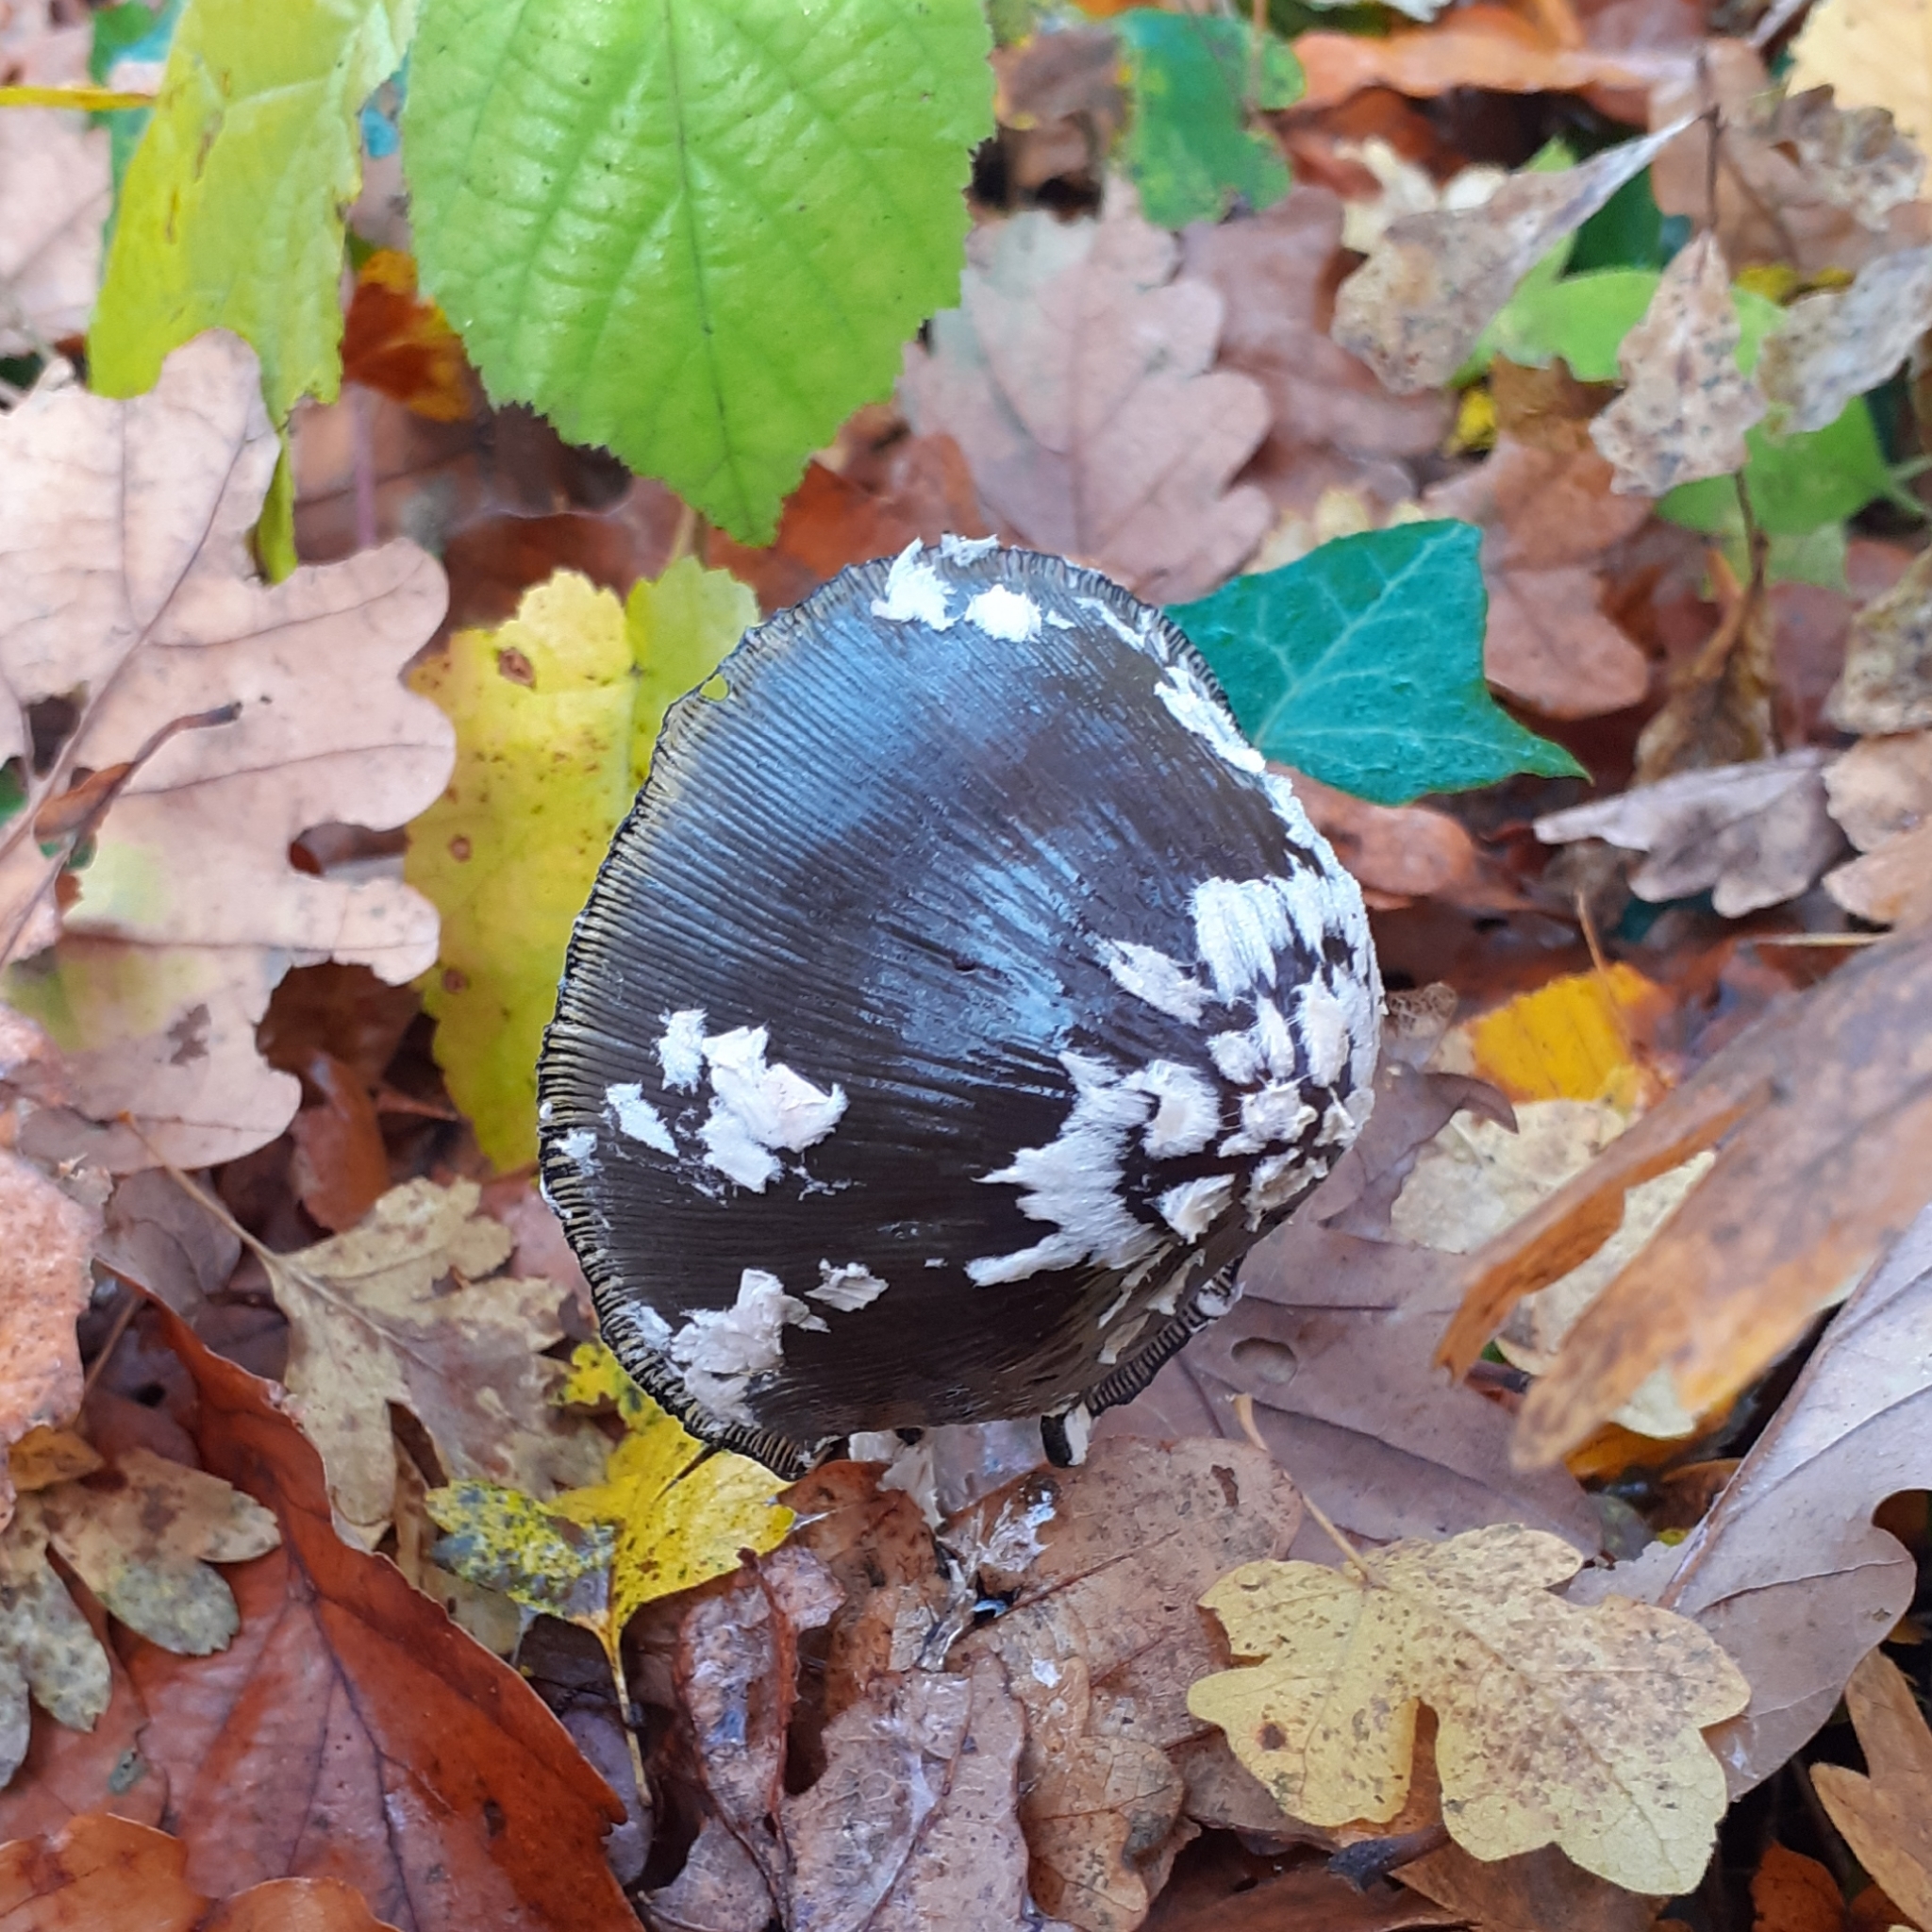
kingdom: Fungi
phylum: Basidiomycota
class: Agaricomycetes
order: Agaricales
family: Psathyrellaceae
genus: Coprinopsis
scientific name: Coprinopsis picacea
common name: Magpie inkcap
